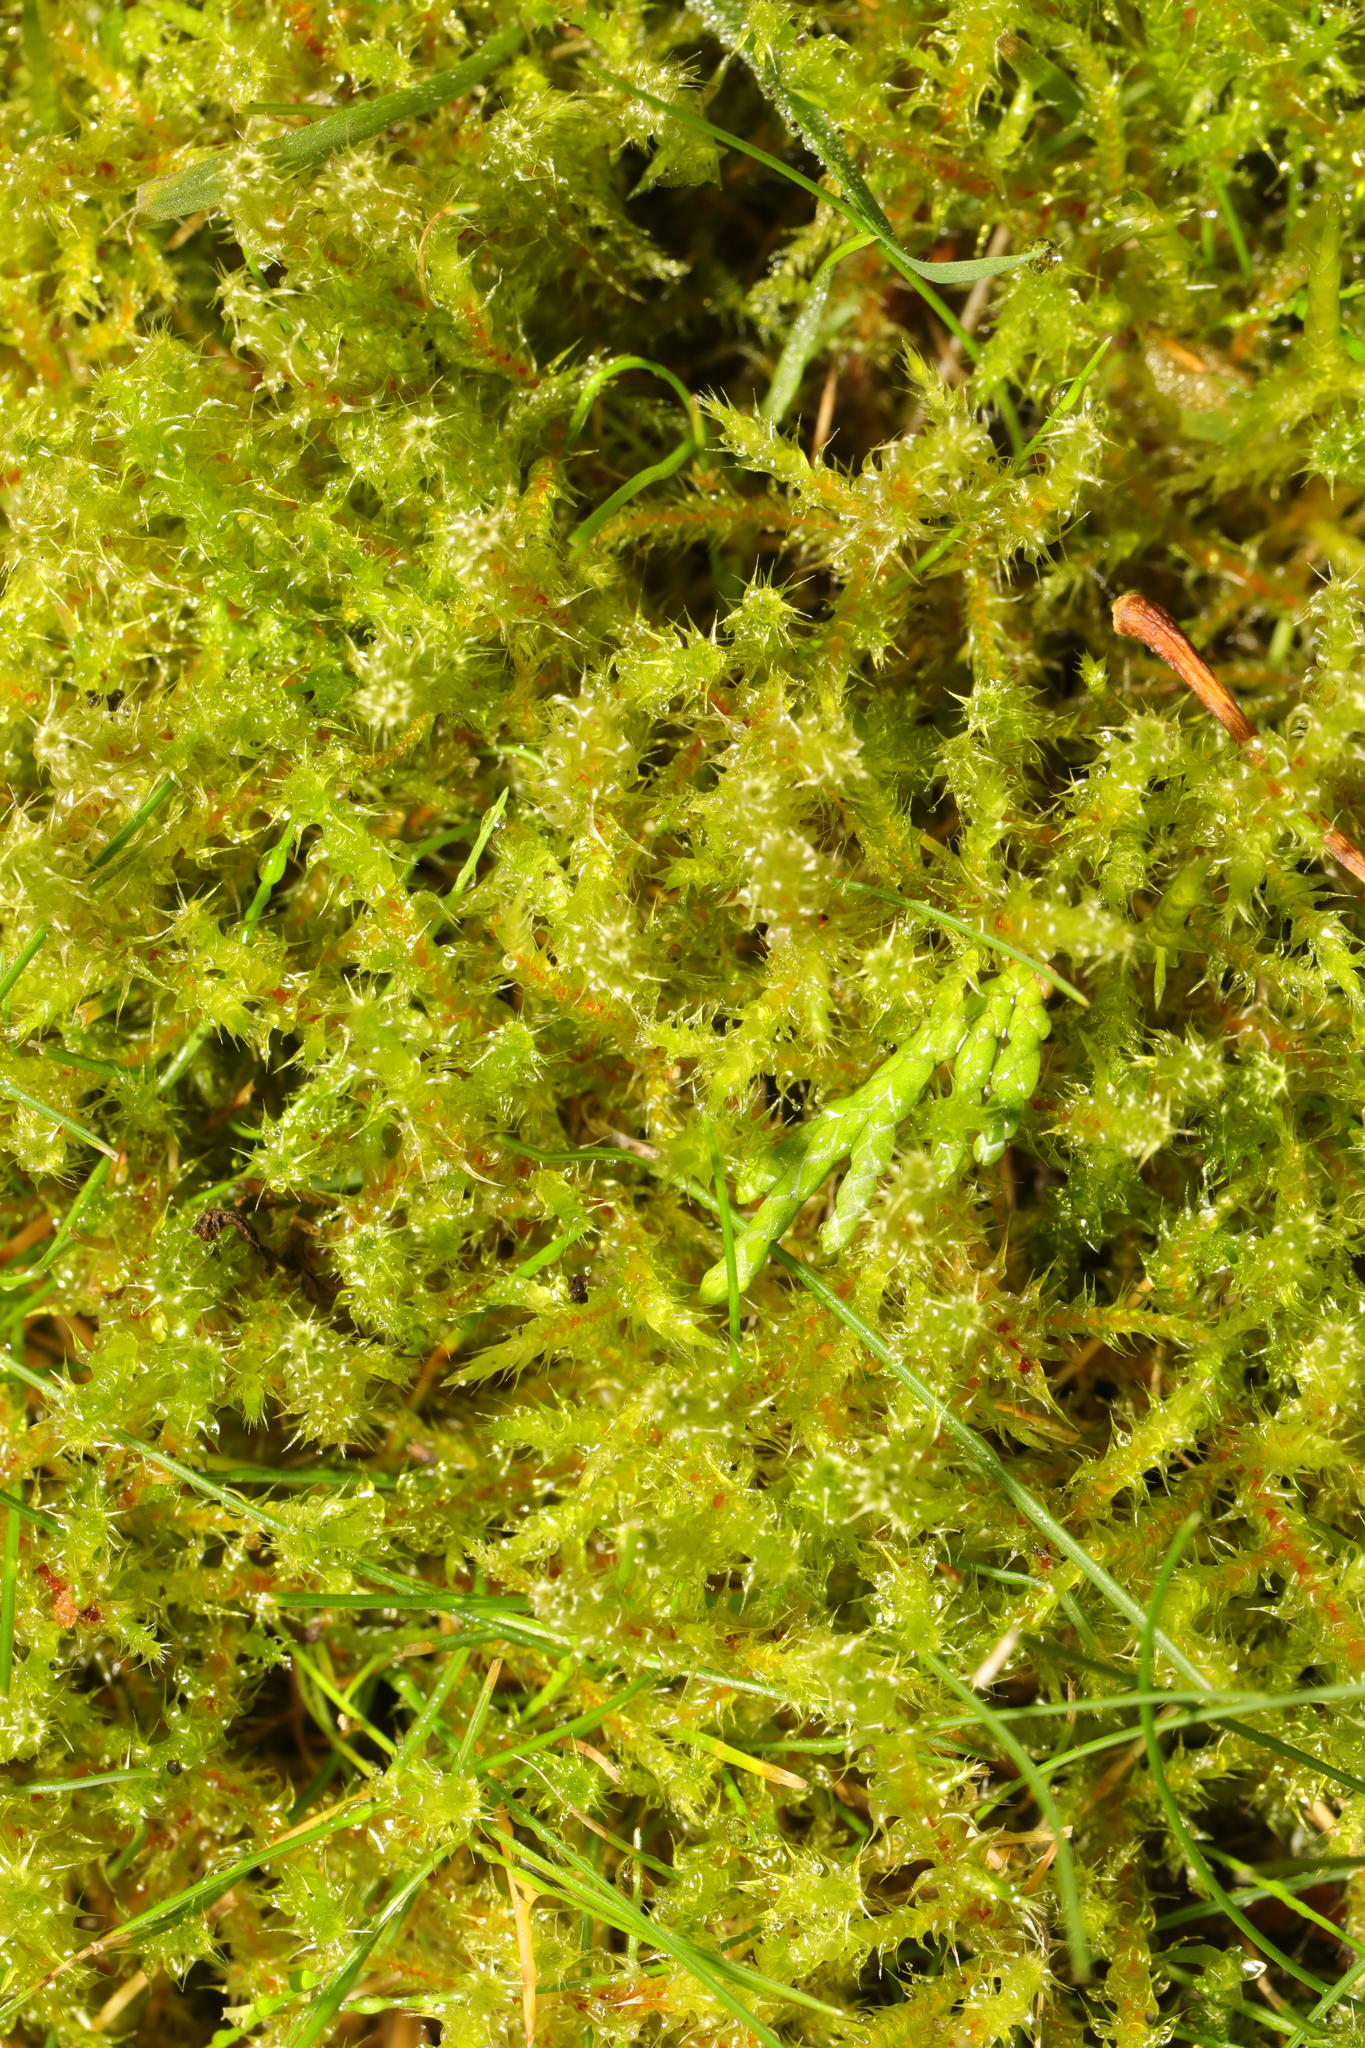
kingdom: Plantae
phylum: Bryophyta
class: Bryopsida
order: Hypnales
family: Hylocomiaceae
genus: Rhytidiadelphus
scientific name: Rhytidiadelphus squarrosus
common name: Springy turf-moss
